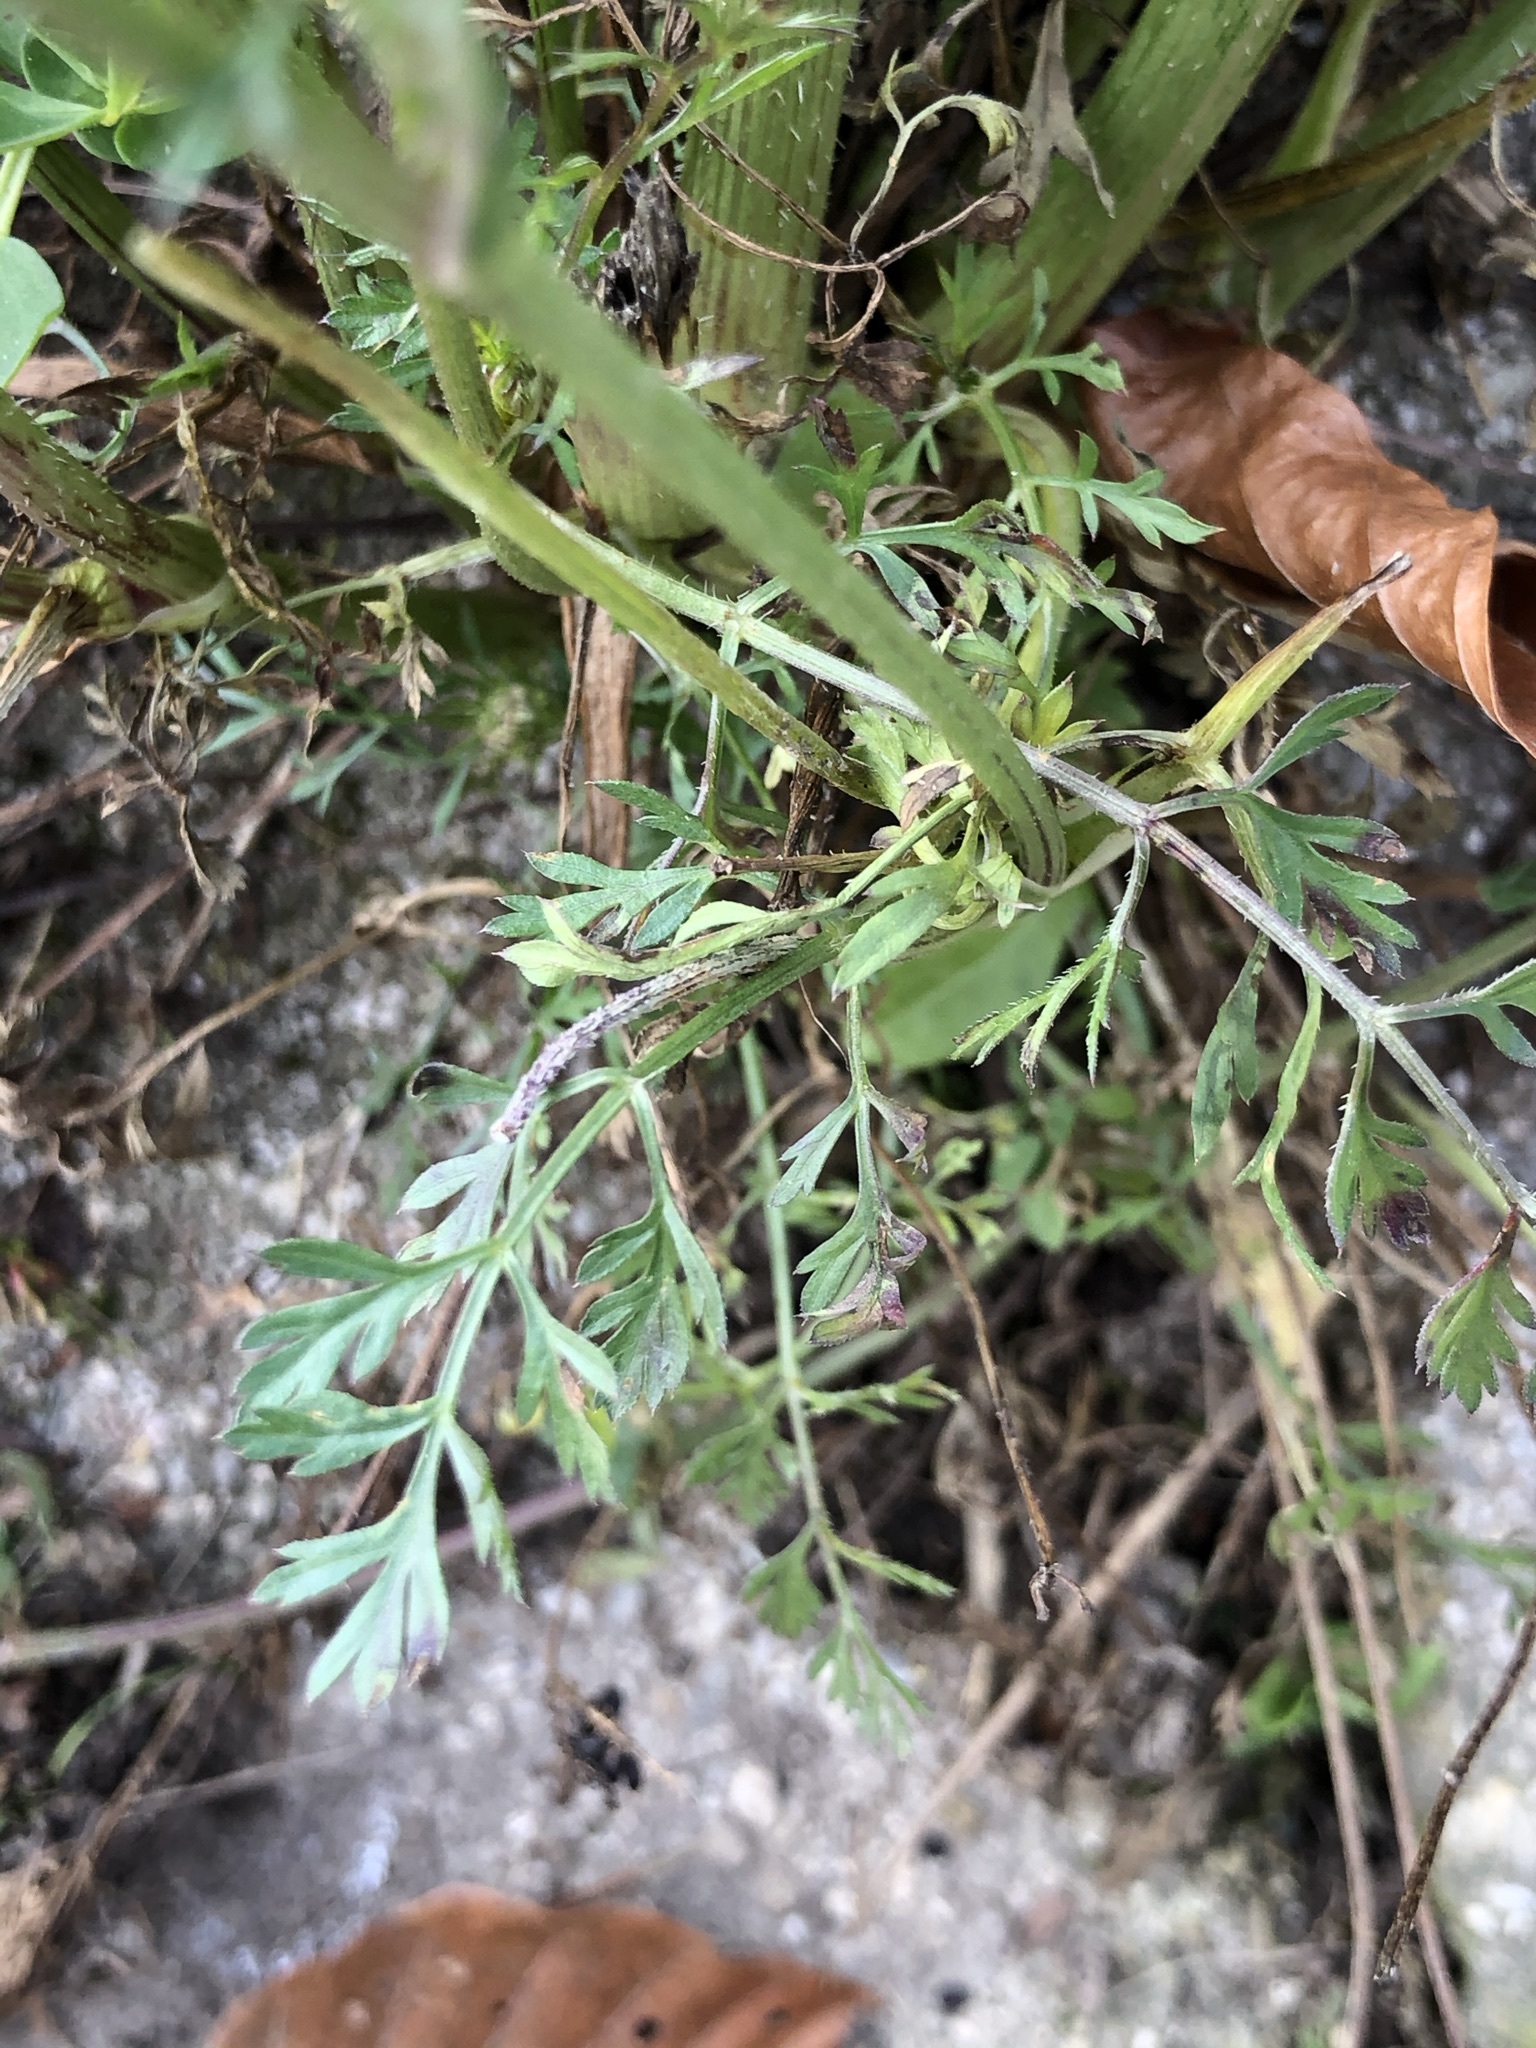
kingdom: Plantae
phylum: Tracheophyta
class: Magnoliopsida
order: Apiales
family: Apiaceae
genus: Daucus
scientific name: Daucus carota
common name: Wild carrot
